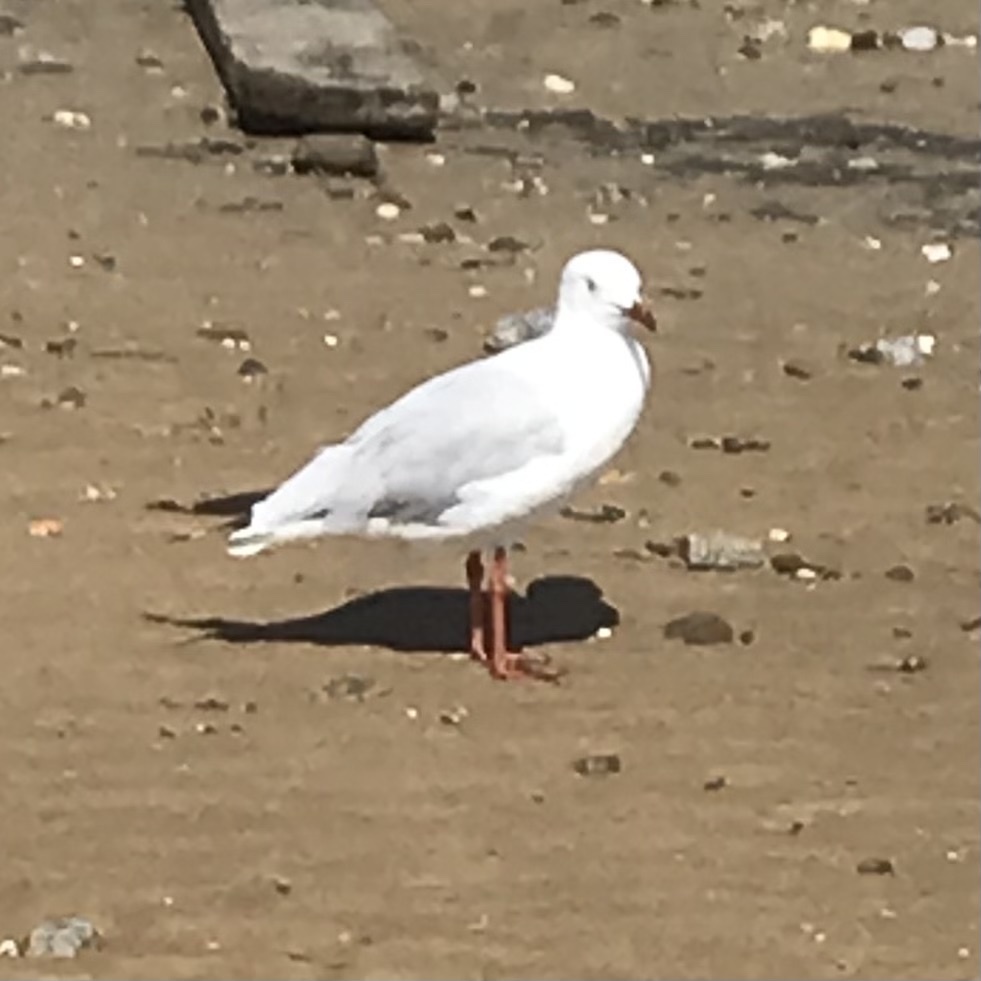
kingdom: Animalia
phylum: Chordata
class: Aves
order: Charadriiformes
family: Laridae
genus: Chroicocephalus
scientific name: Chroicocephalus novaehollandiae
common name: Silver gull
